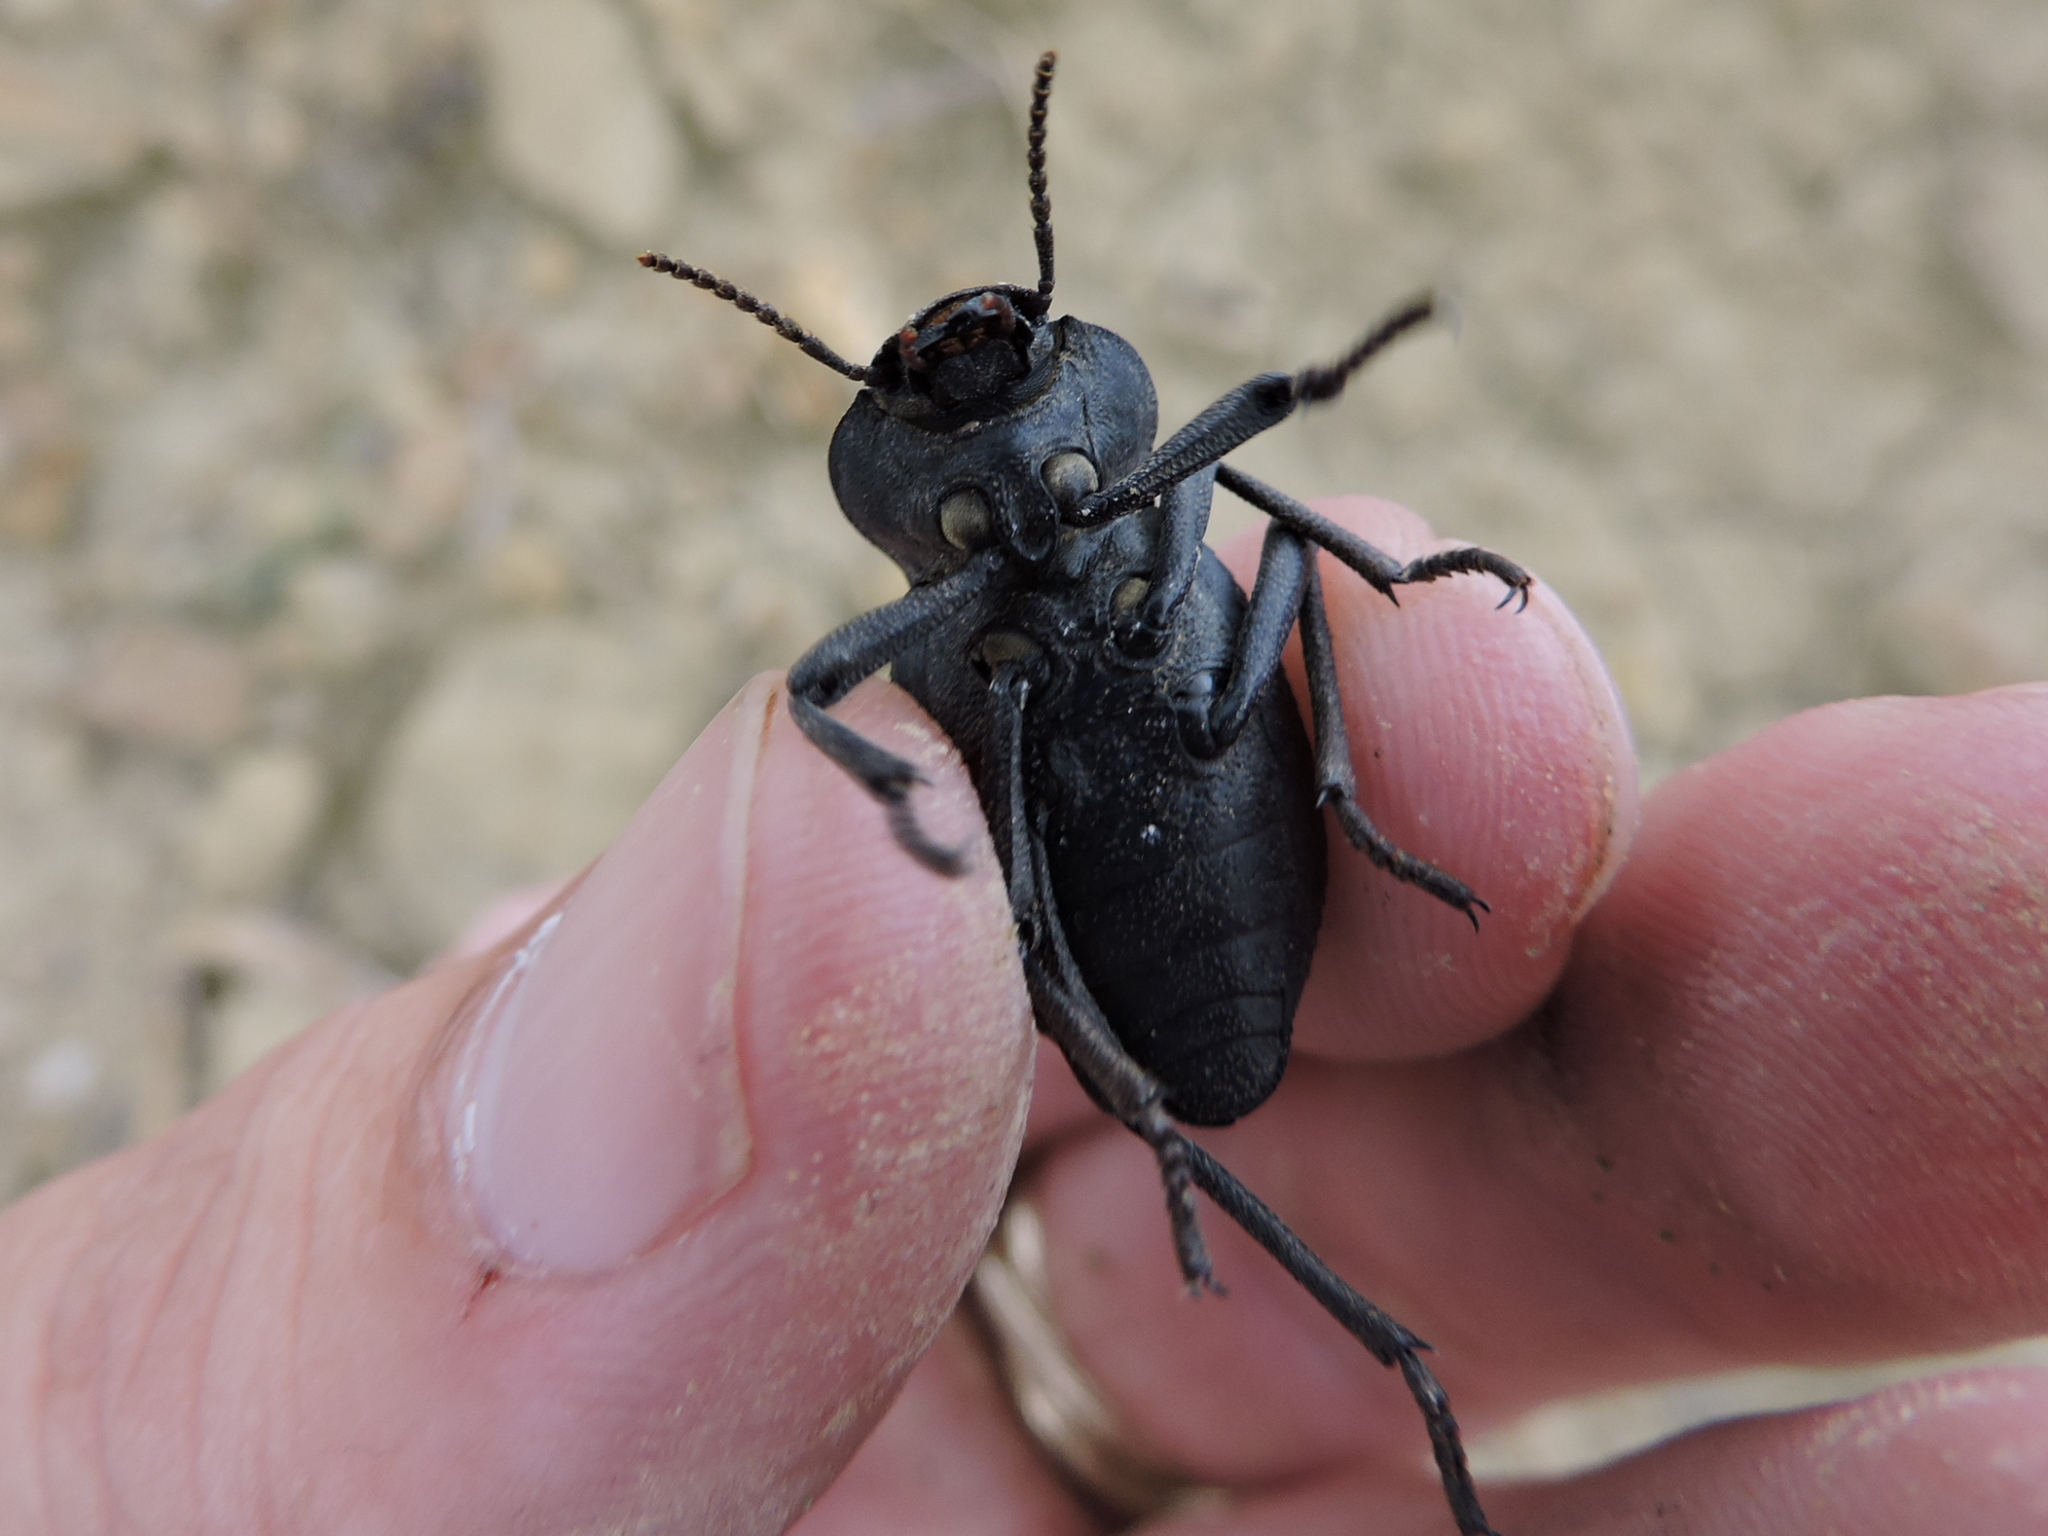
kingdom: Animalia
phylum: Arthropoda
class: Insecta
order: Coleoptera
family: Tenebrionidae
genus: Cryptoglossa
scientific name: Cryptoglossa infausta
